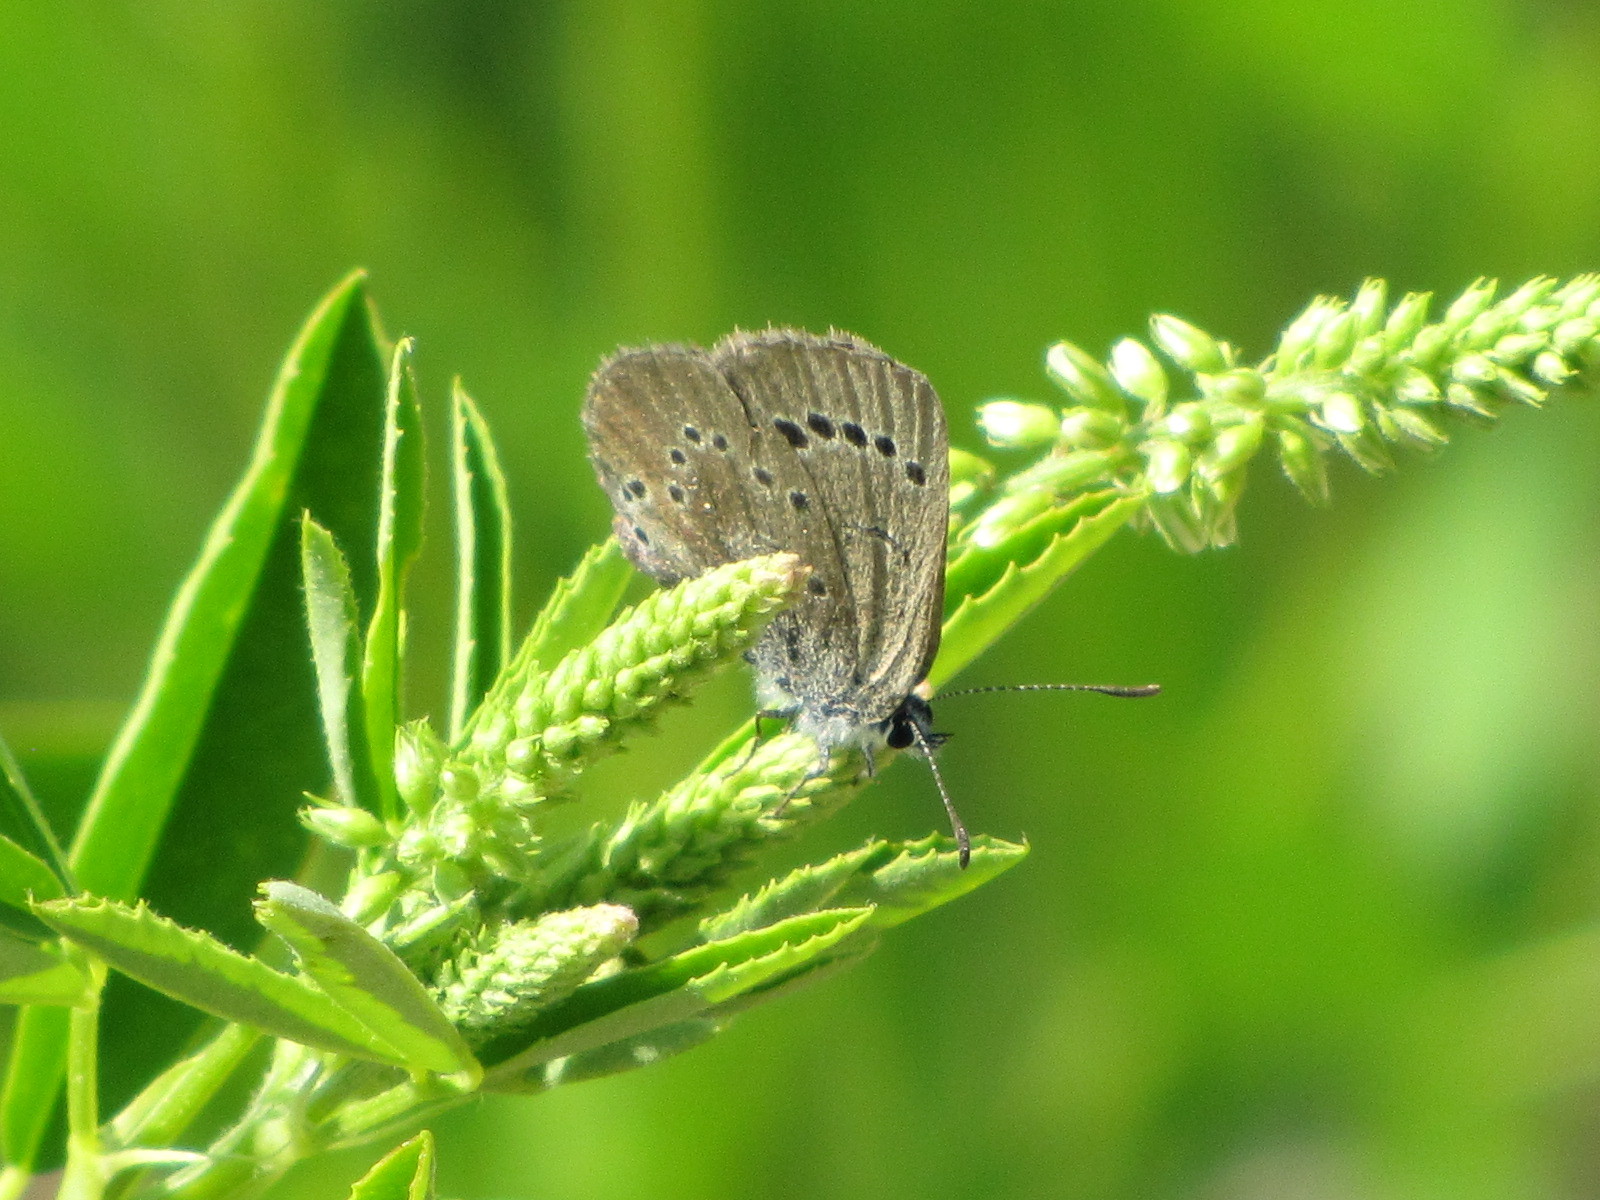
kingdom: Animalia
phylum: Arthropoda
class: Insecta
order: Lepidoptera
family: Lycaenidae
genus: Glaucopsyche
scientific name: Glaucopsyche lygdamus
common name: Silvery blue
